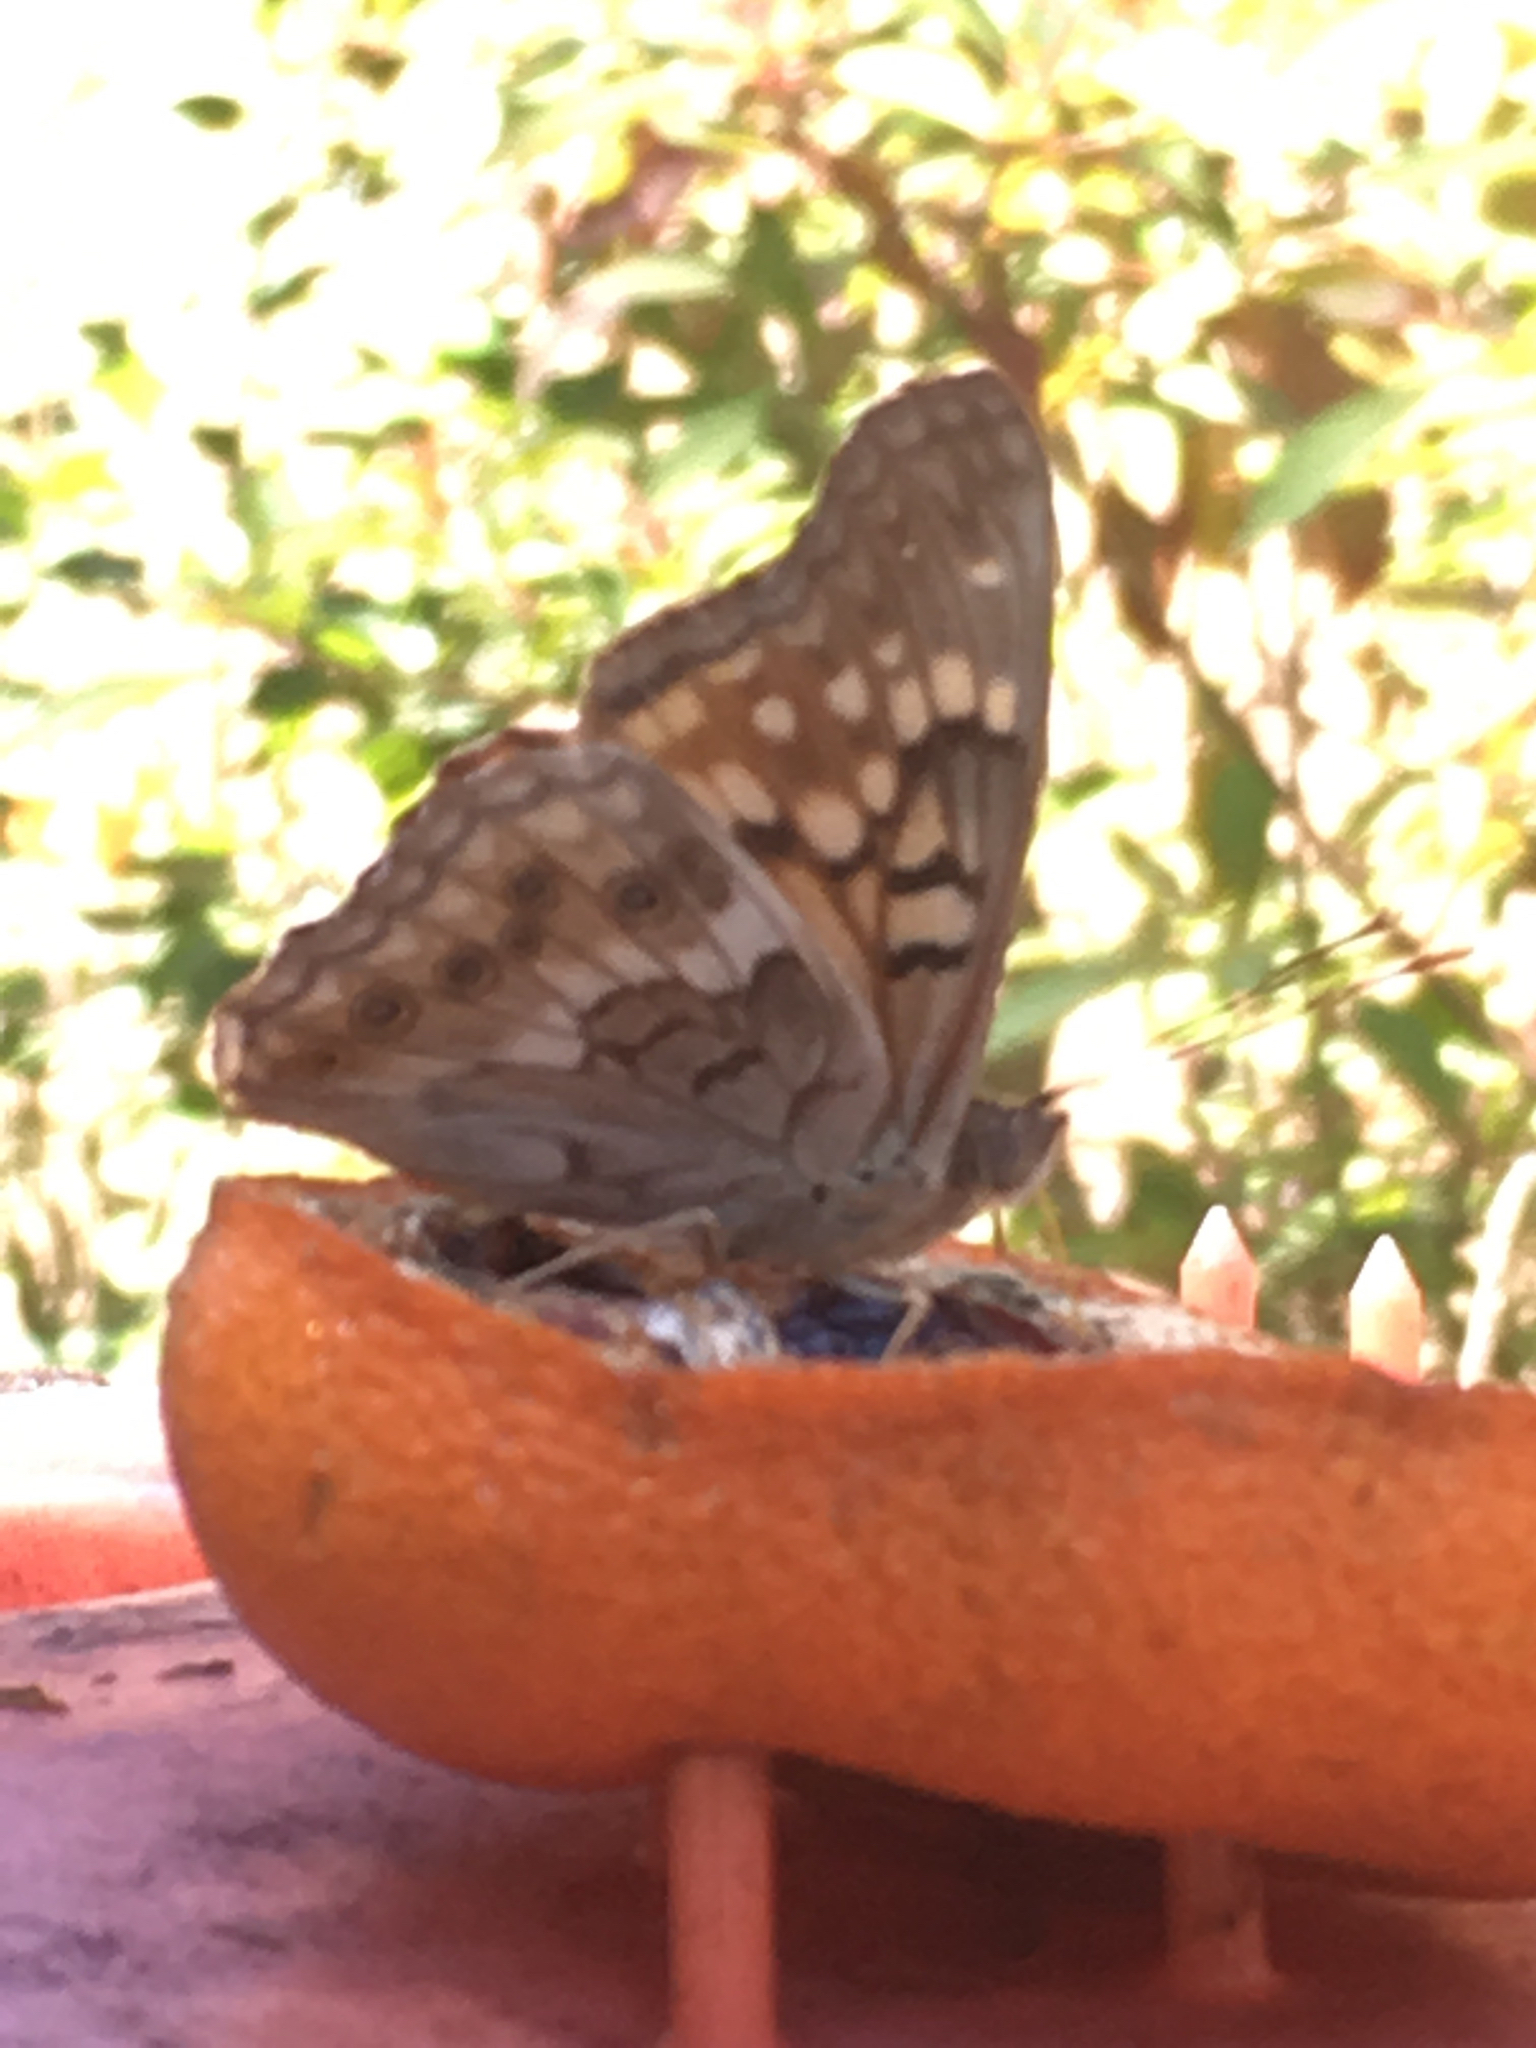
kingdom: Animalia
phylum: Arthropoda
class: Insecta
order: Lepidoptera
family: Nymphalidae
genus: Asterocampa
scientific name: Asterocampa clyton
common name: Tawny emperor
